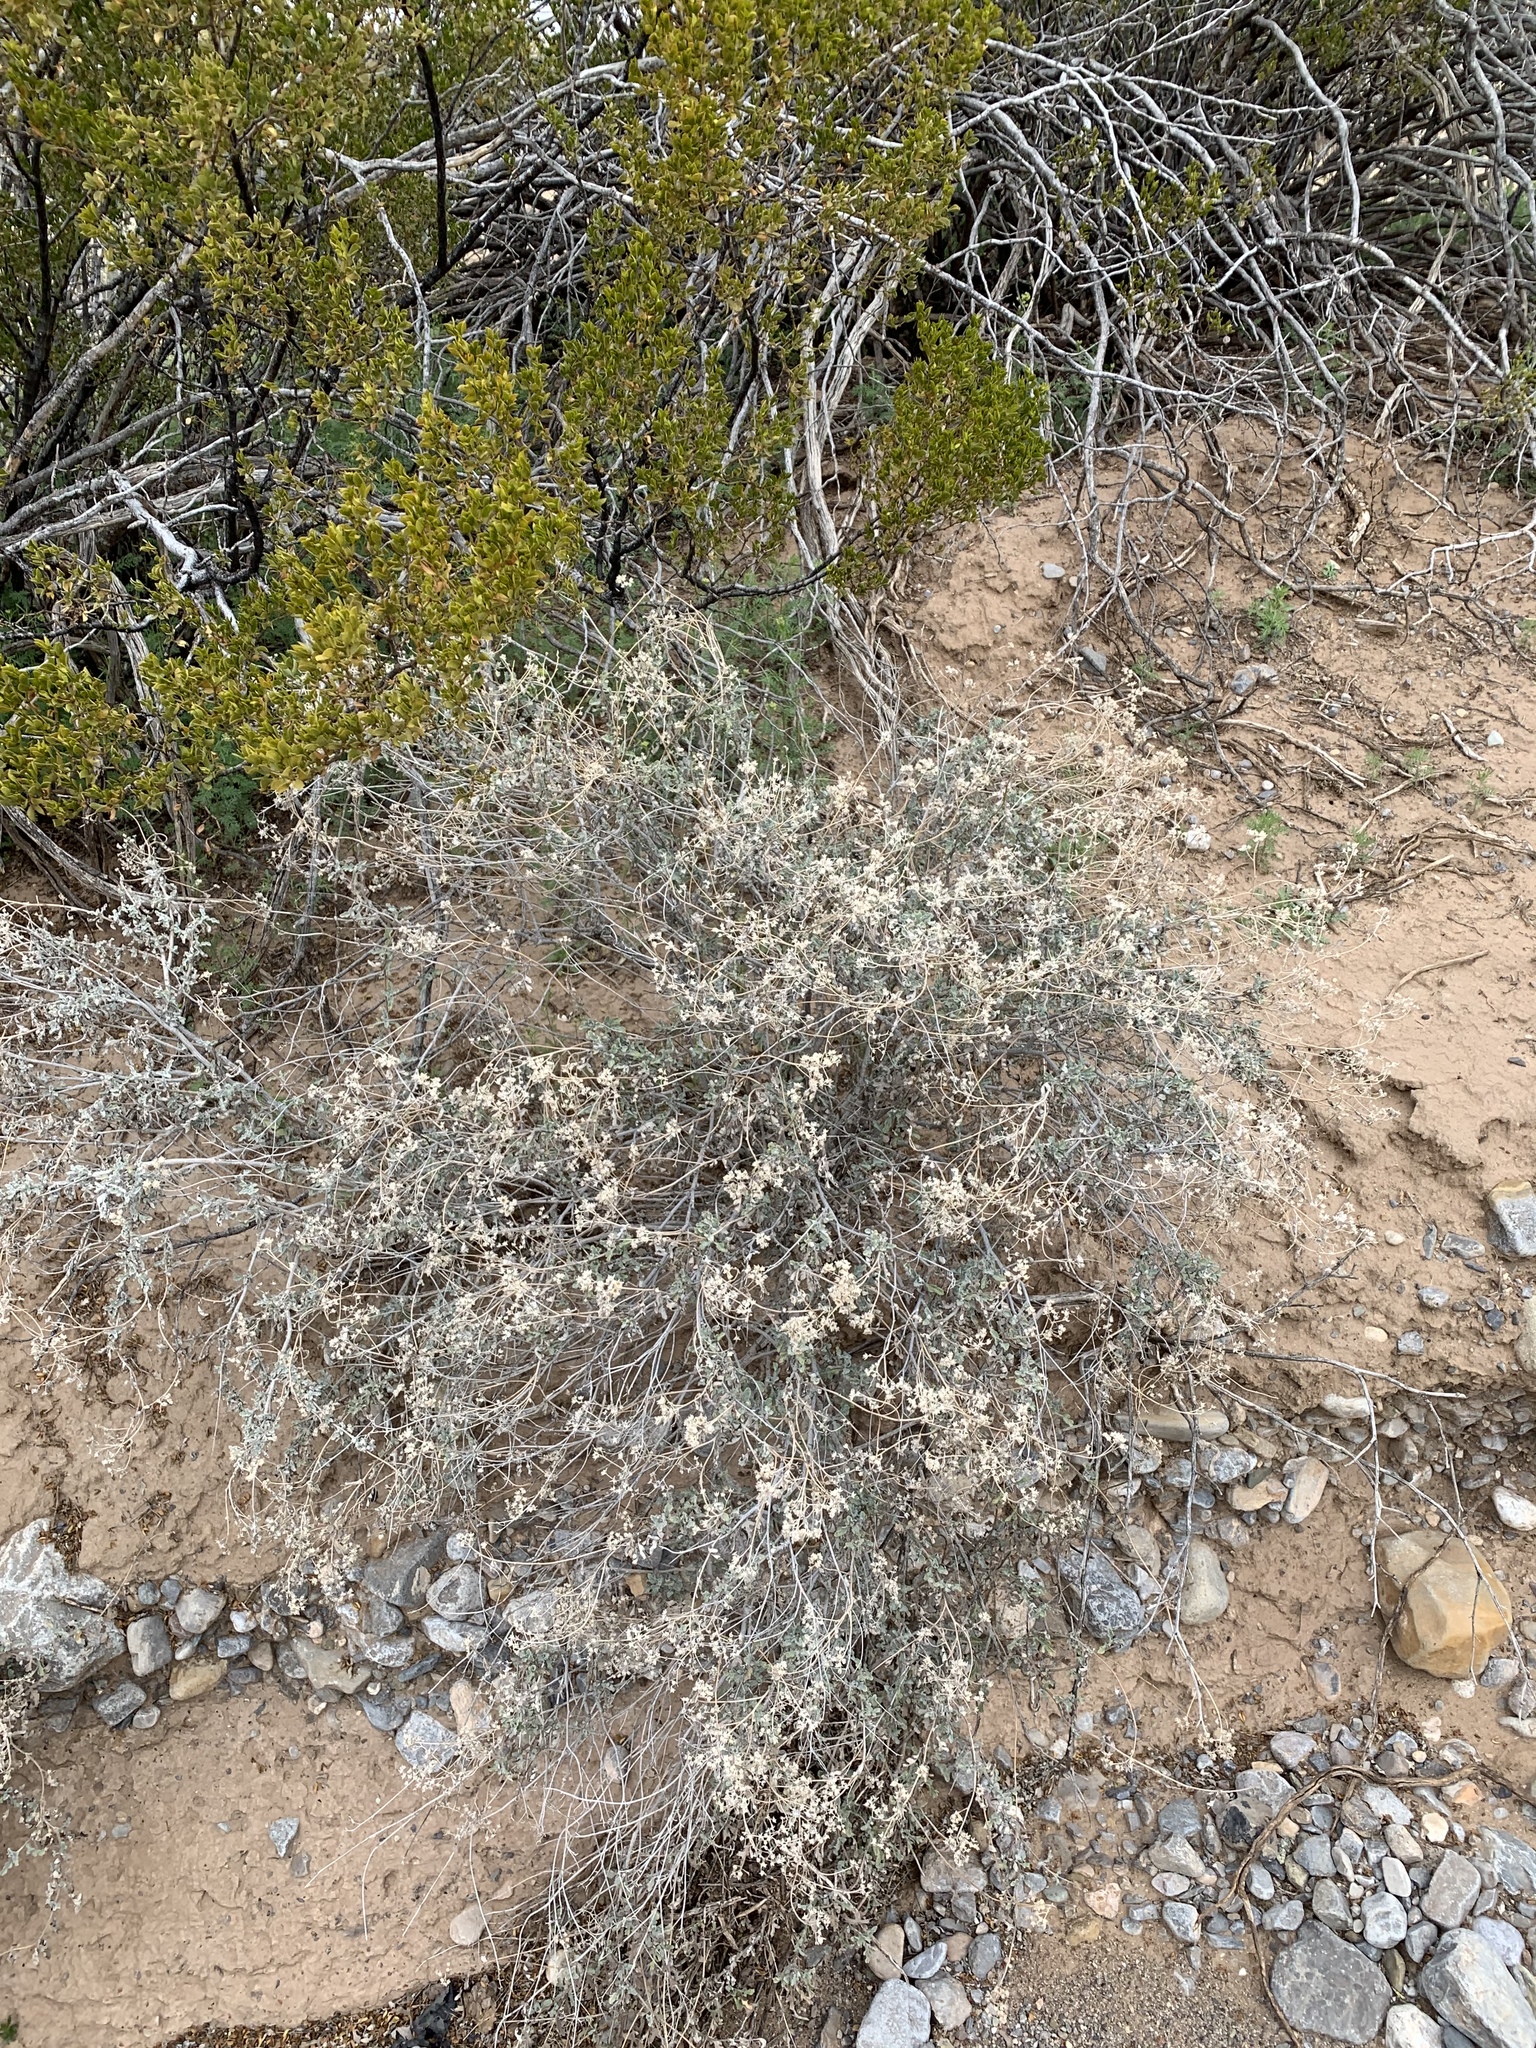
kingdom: Plantae
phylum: Tracheophyta
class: Magnoliopsida
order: Asterales
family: Asteraceae
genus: Parthenium
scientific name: Parthenium incanum
